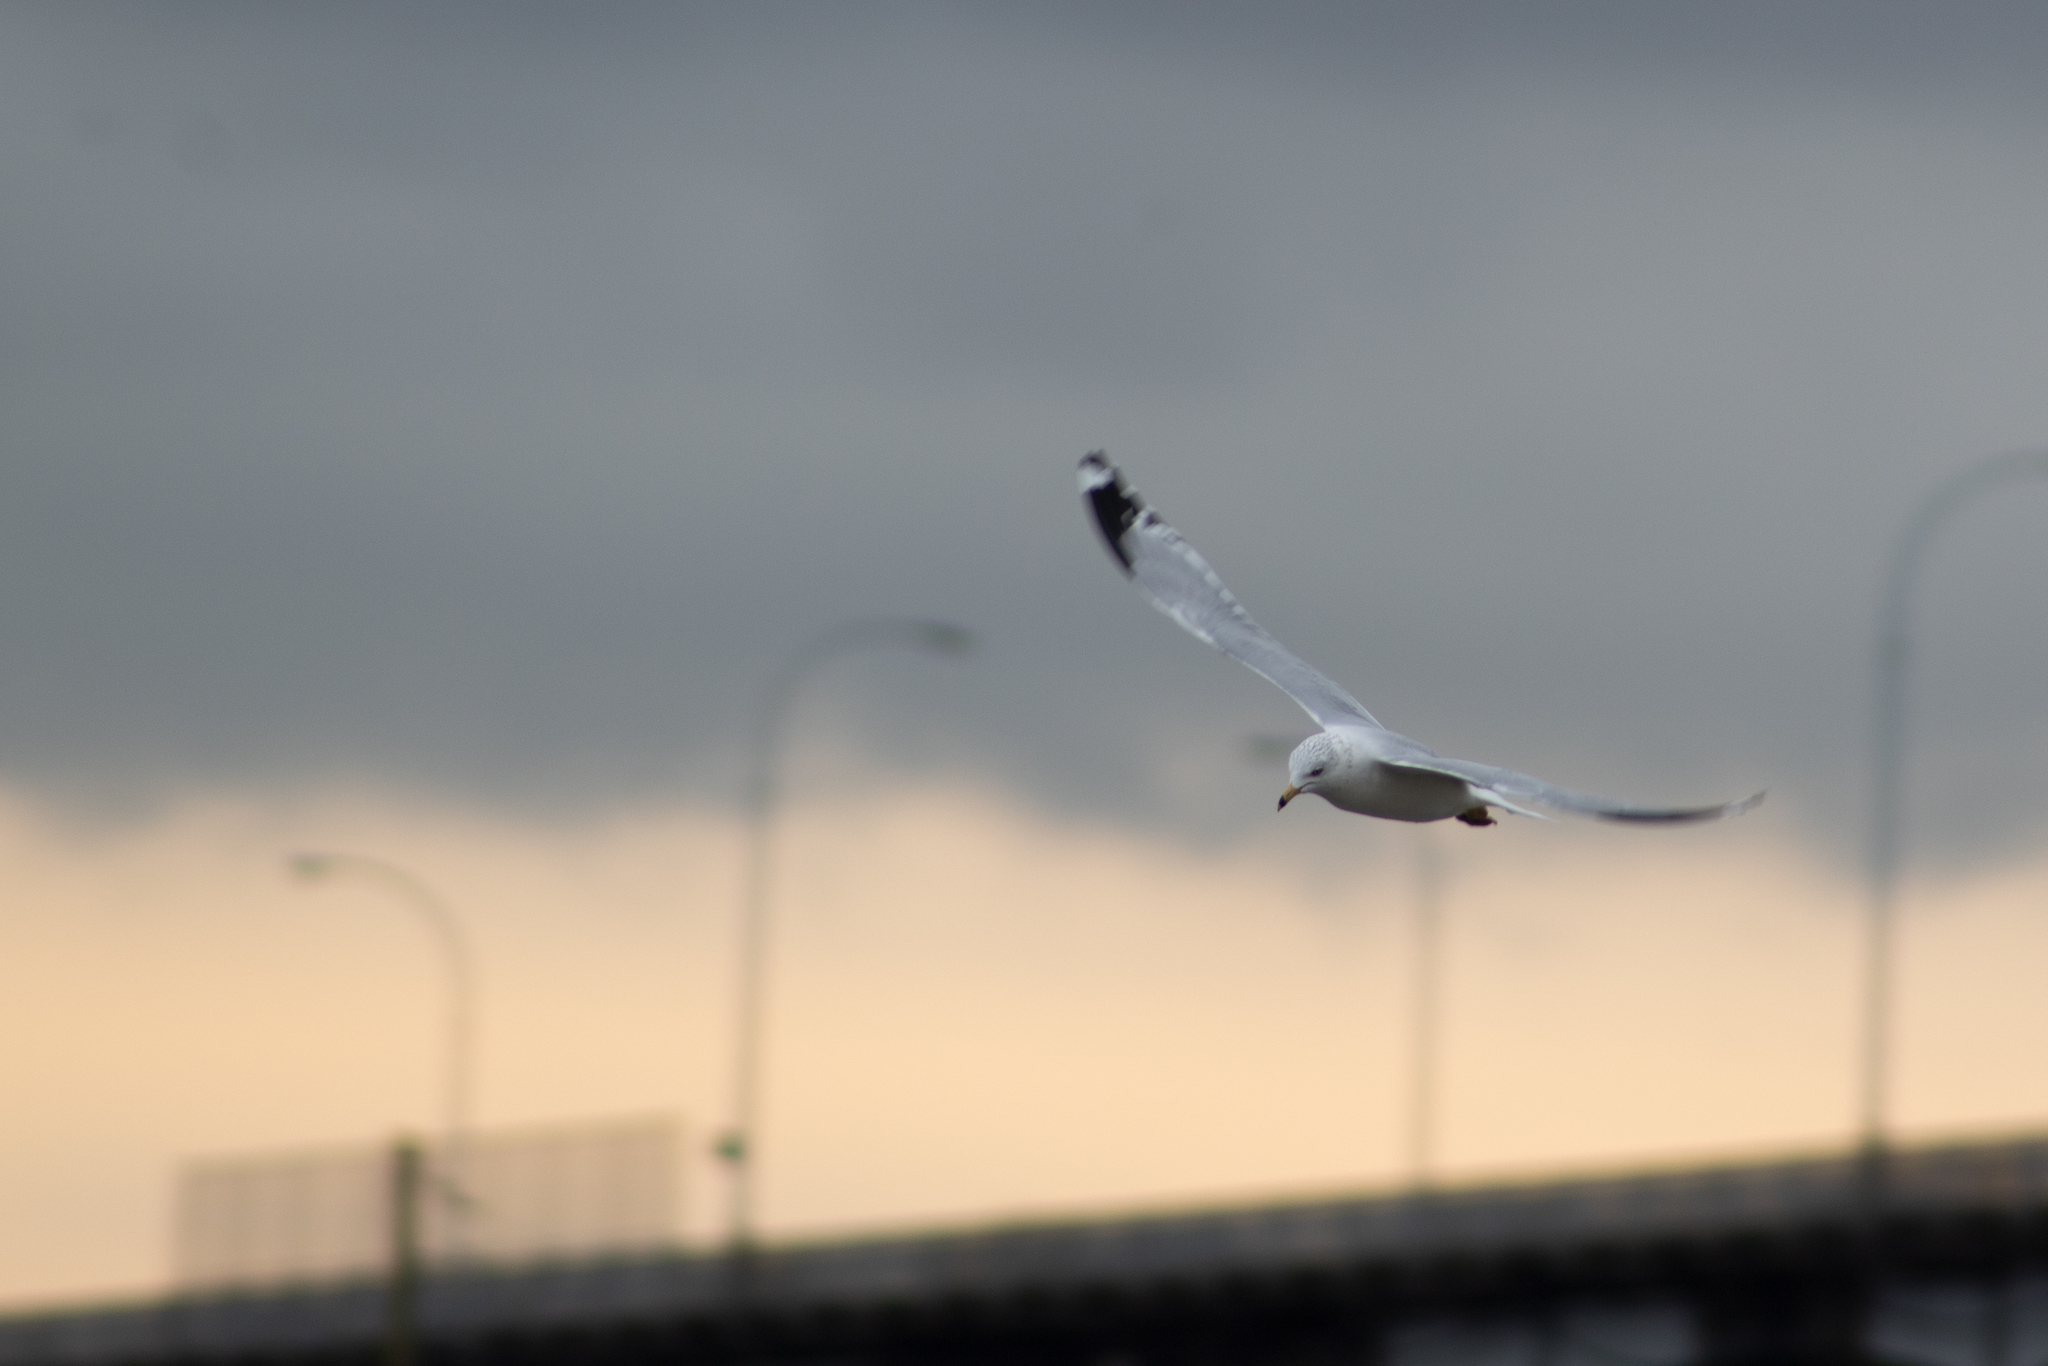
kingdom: Animalia
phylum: Chordata
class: Aves
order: Charadriiformes
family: Laridae
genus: Larus
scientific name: Larus delawarensis
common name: Ring-billed gull
